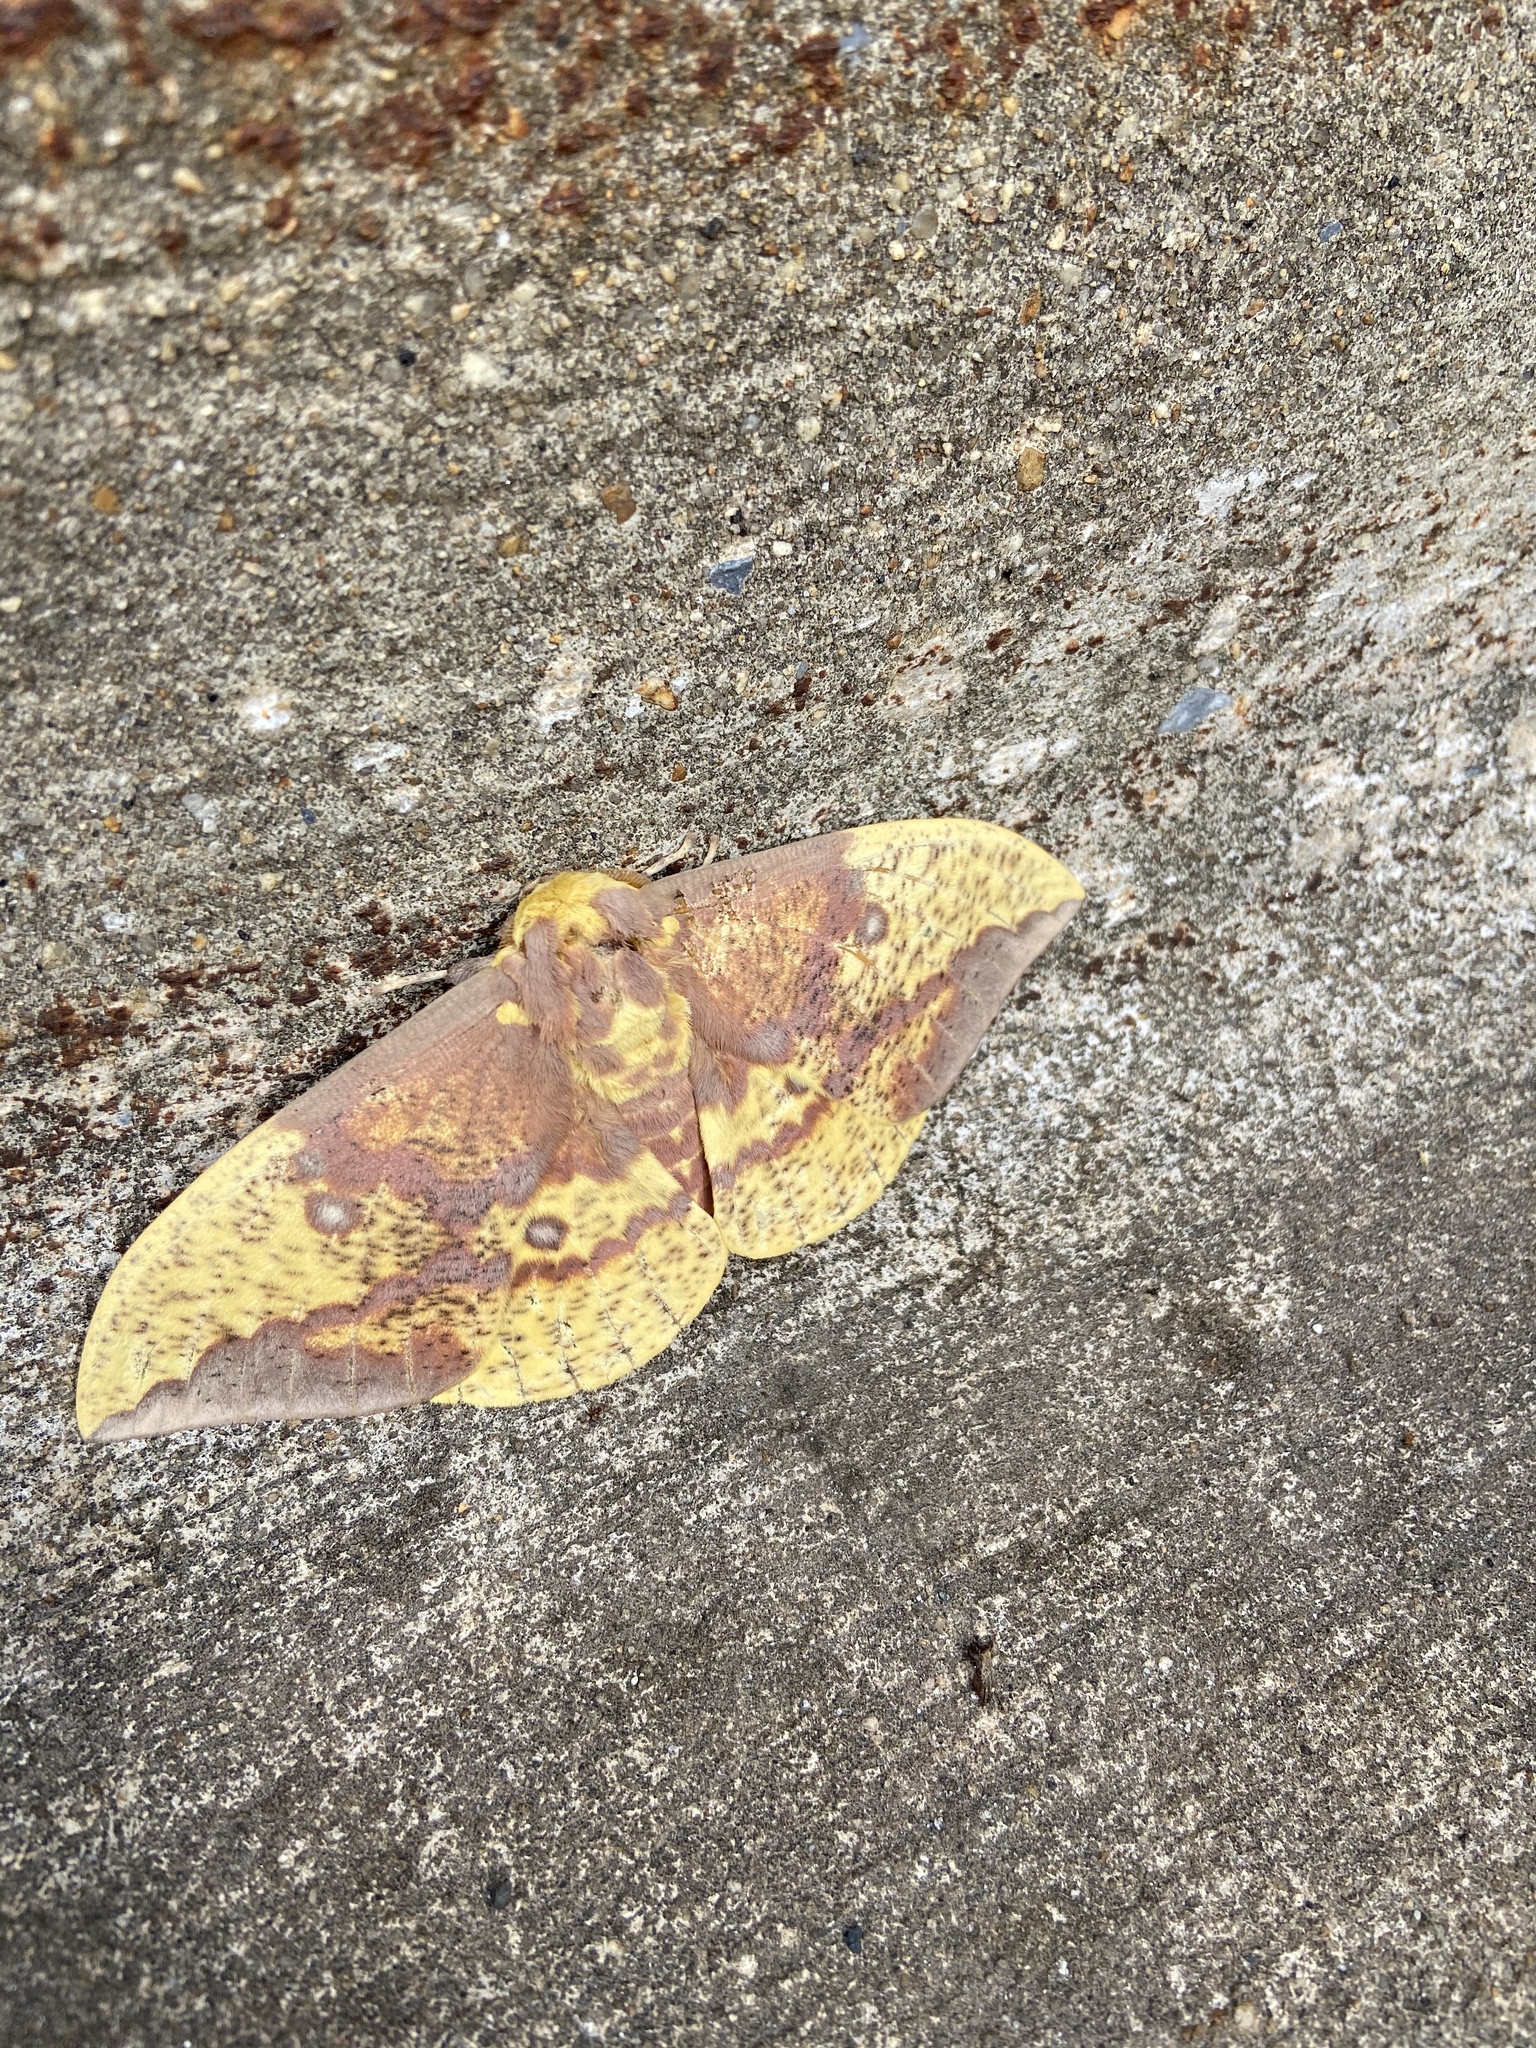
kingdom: Animalia
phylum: Arthropoda
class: Insecta
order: Lepidoptera
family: Saturniidae
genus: Eacles
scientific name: Eacles imperialis
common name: Imperial moth
